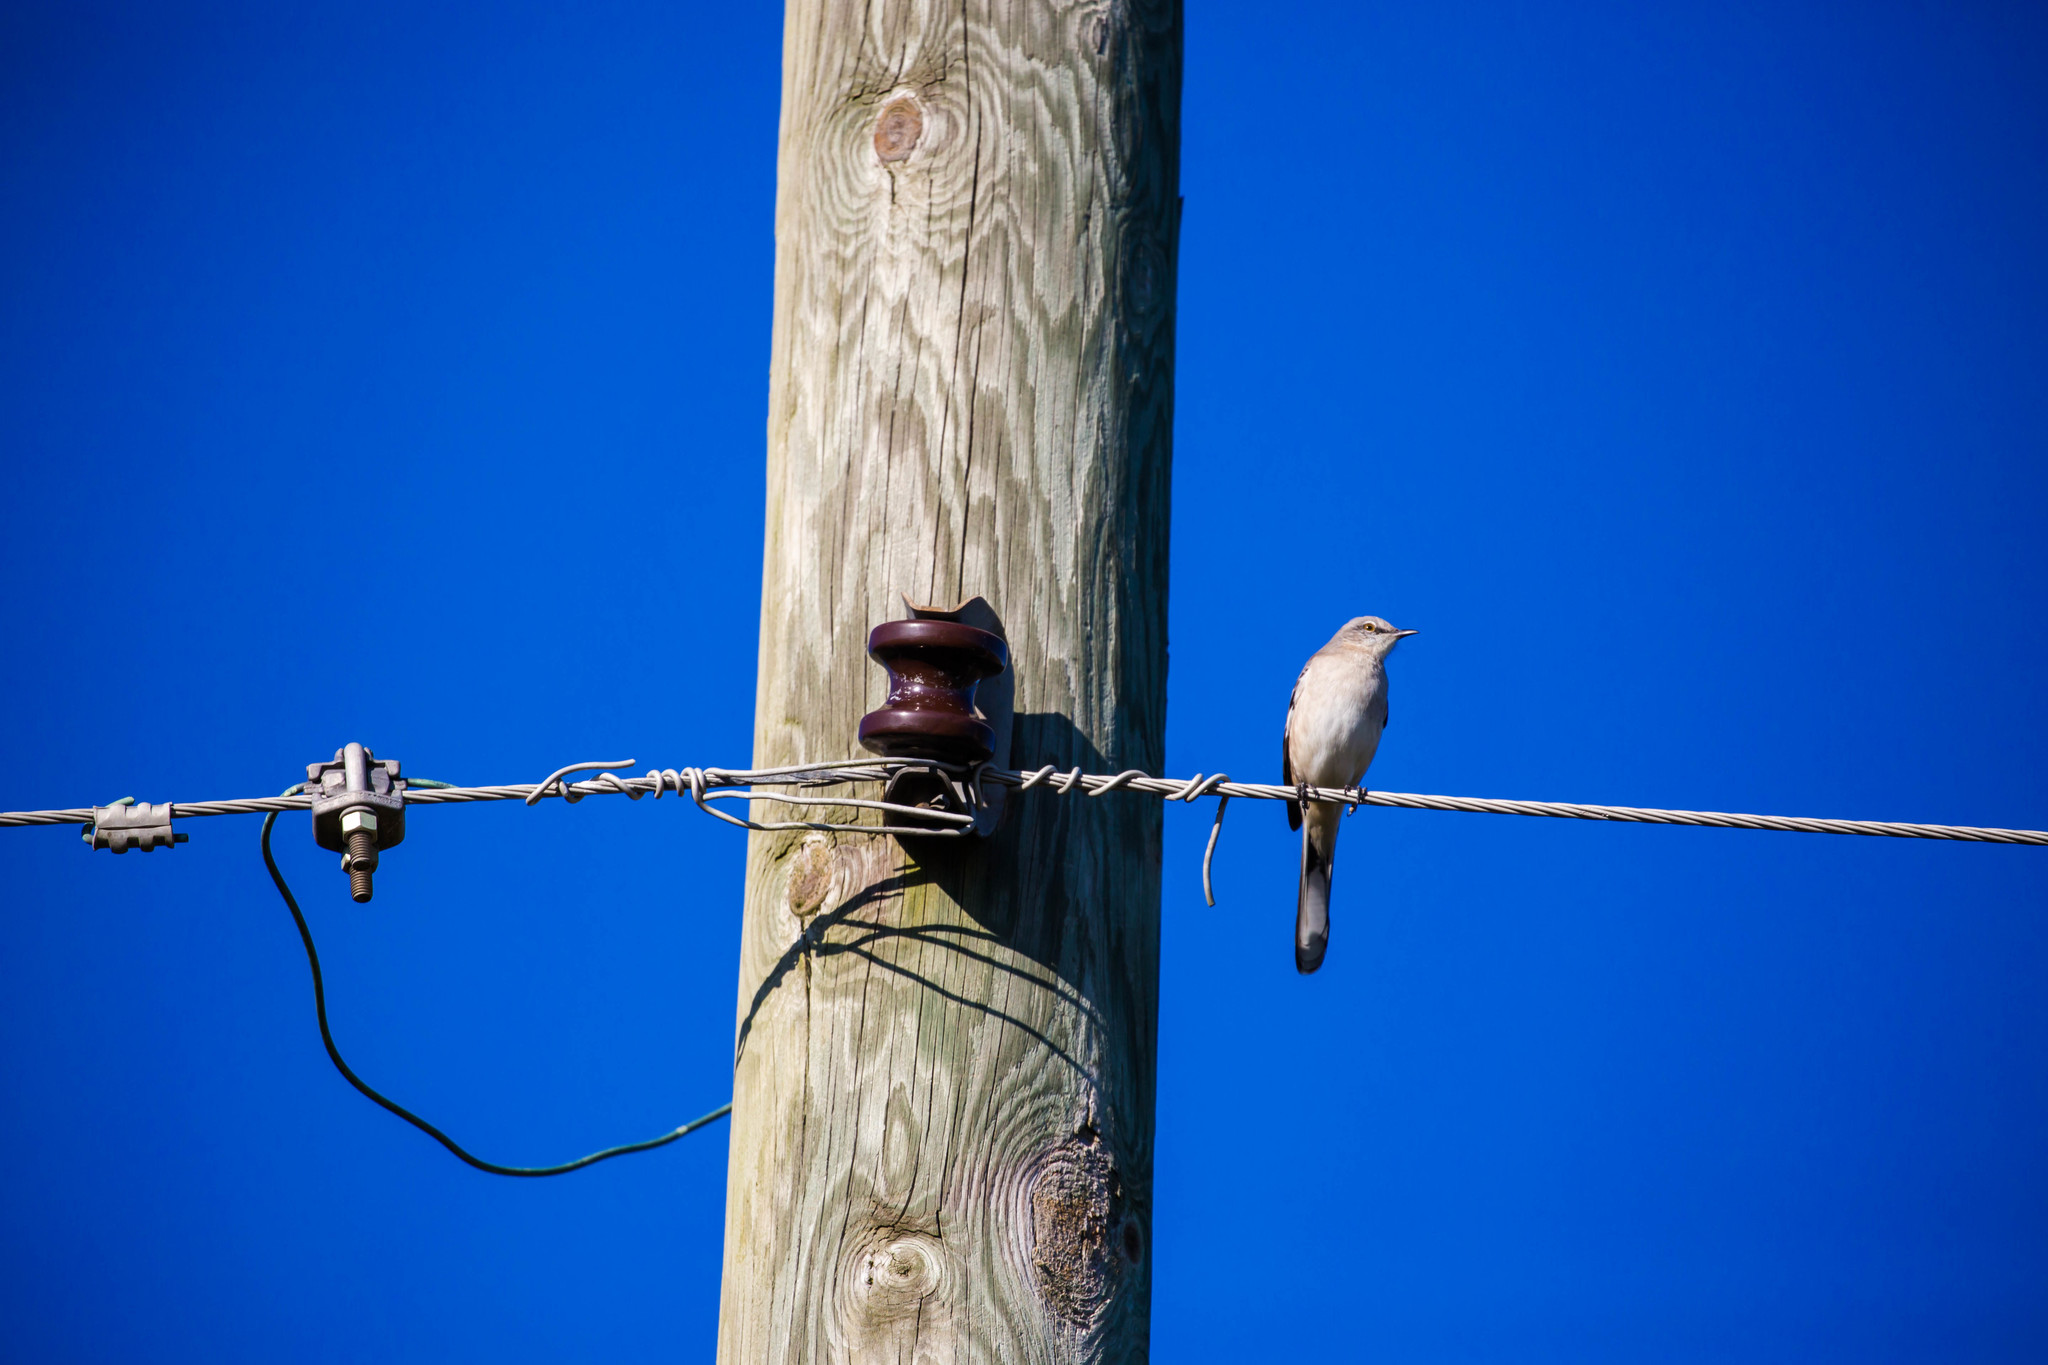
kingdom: Animalia
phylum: Chordata
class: Aves
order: Passeriformes
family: Mimidae
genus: Mimus
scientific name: Mimus polyglottos
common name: Northern mockingbird
